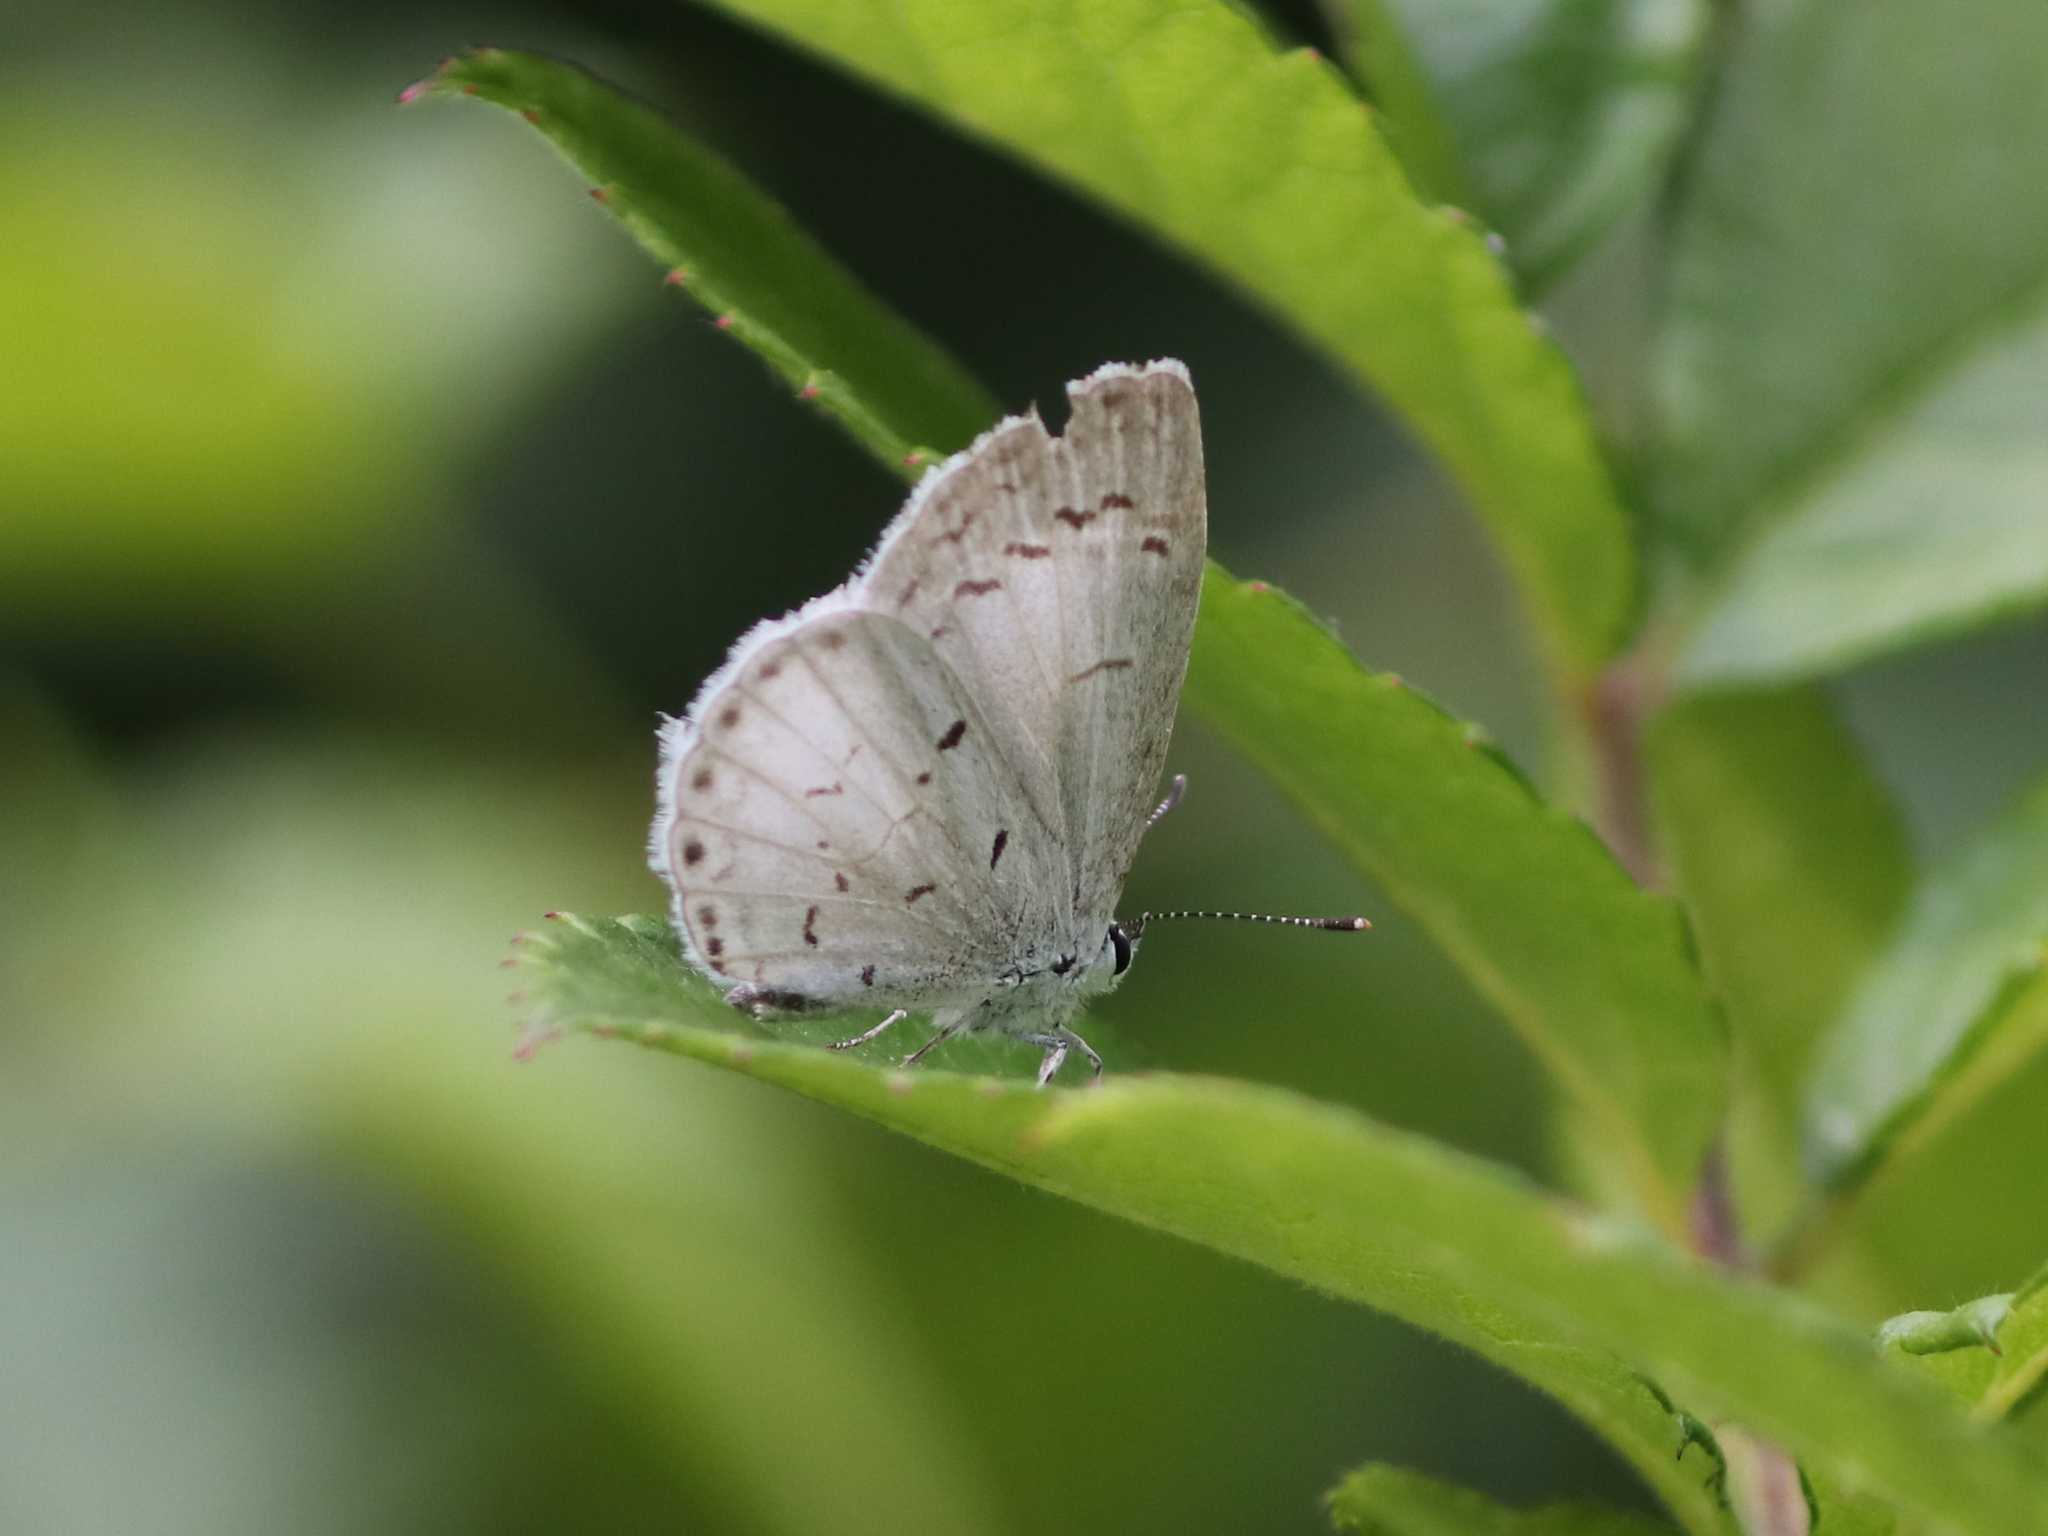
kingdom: Animalia
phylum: Arthropoda
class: Insecta
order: Lepidoptera
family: Lycaenidae
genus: Cyaniris
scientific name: Cyaniris neglecta
